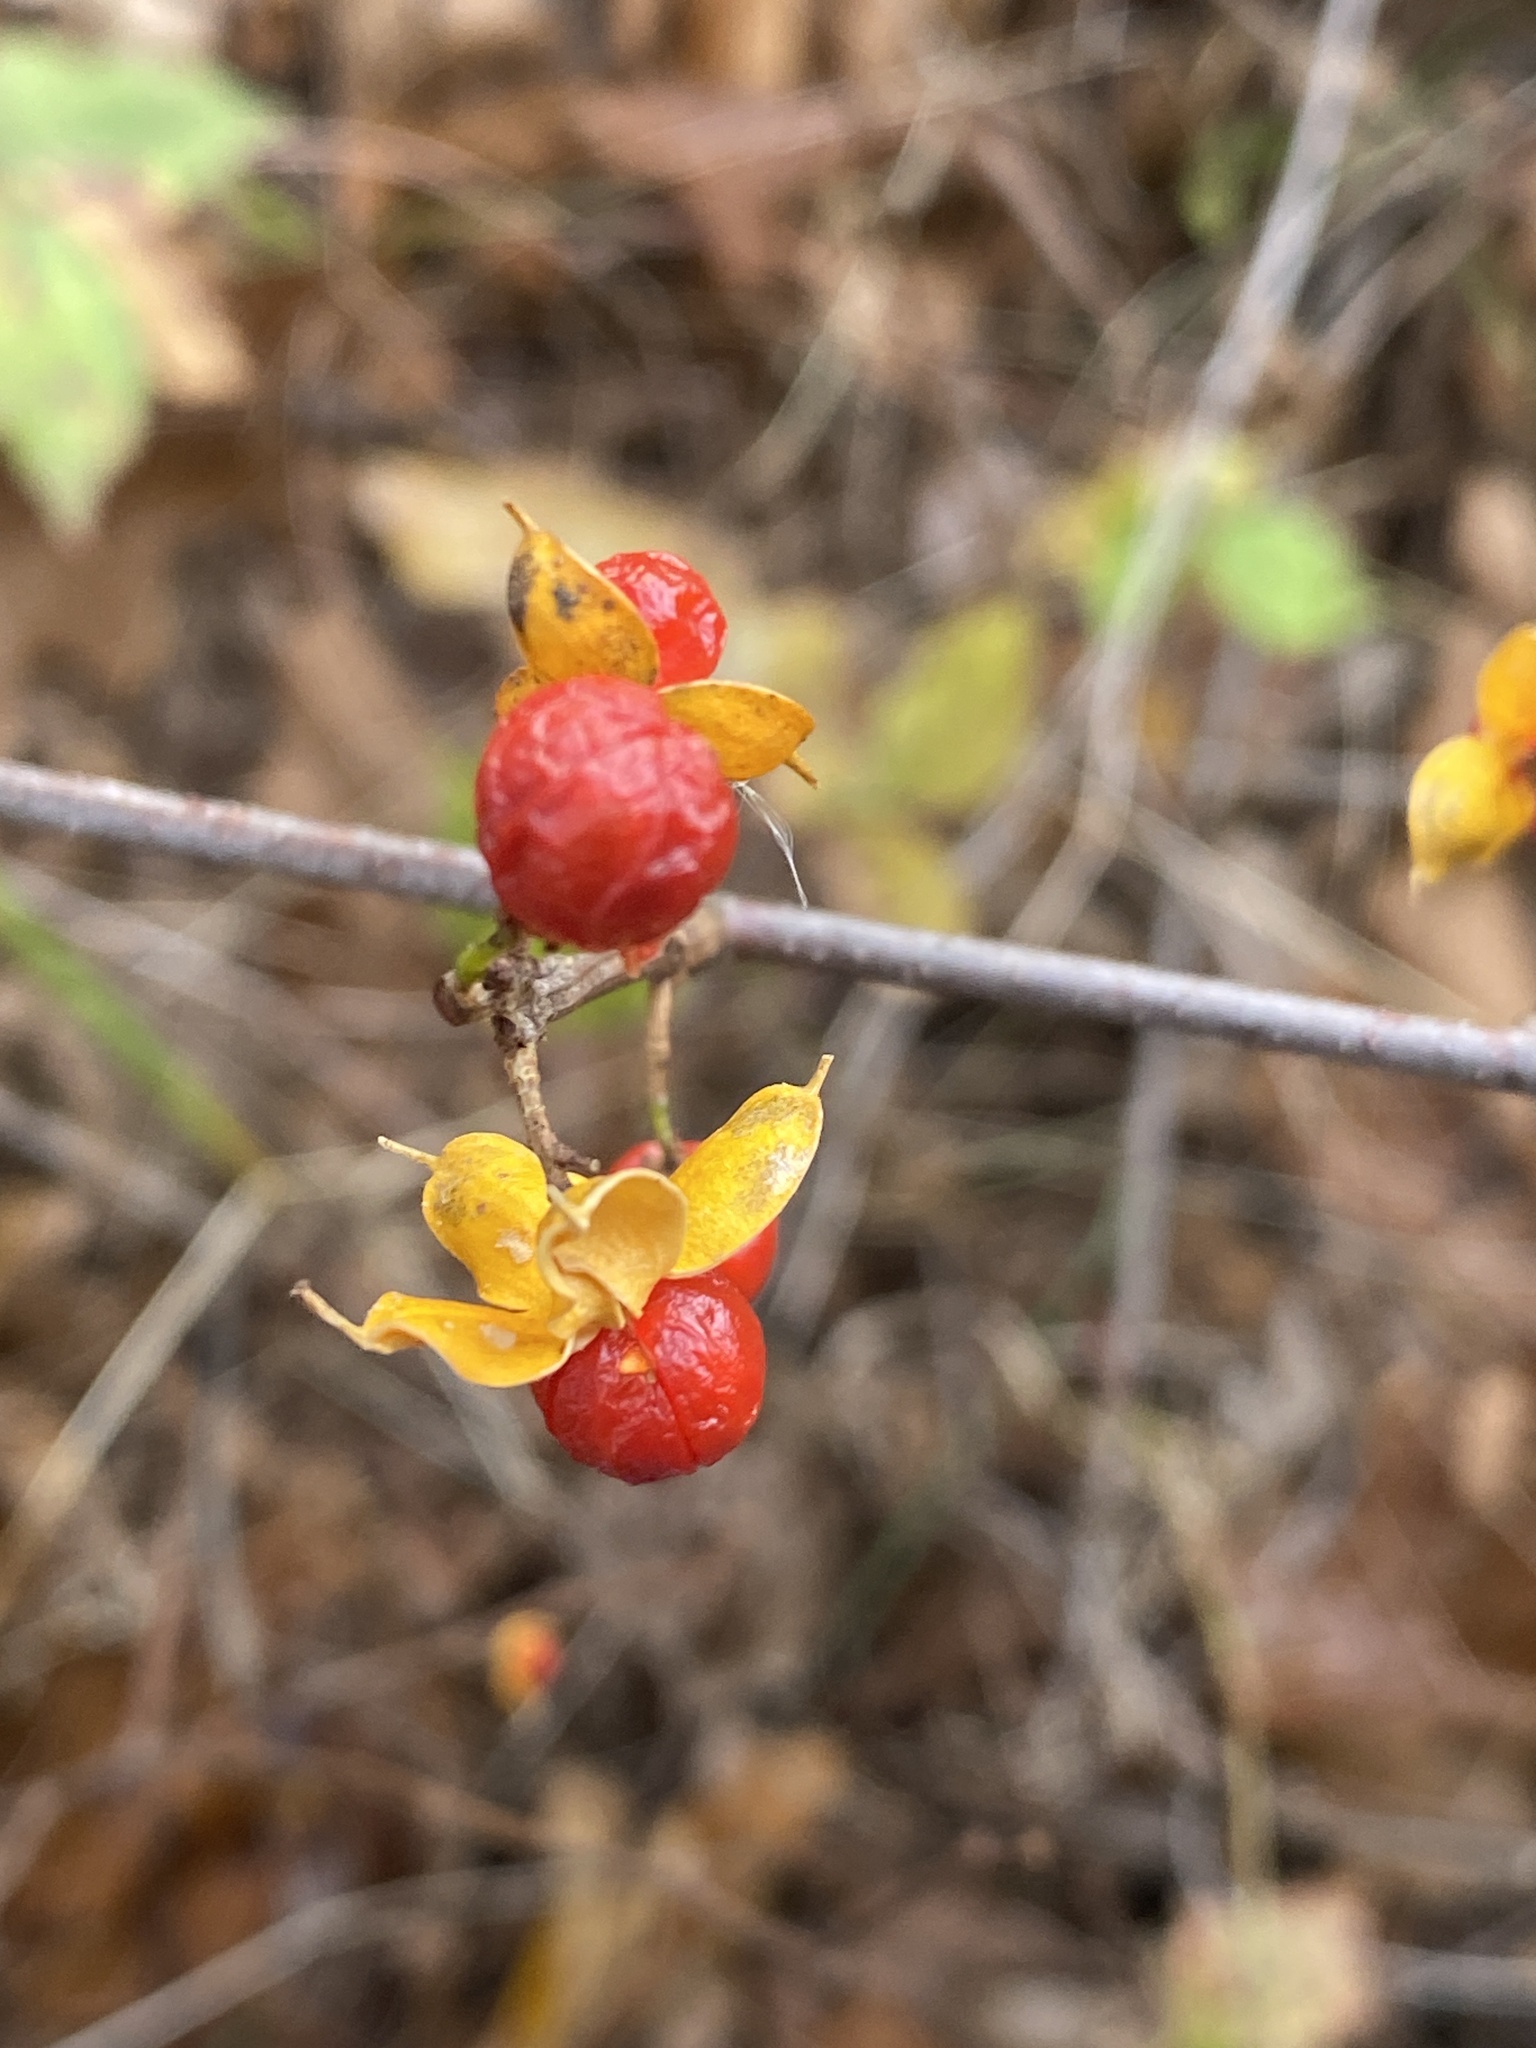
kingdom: Plantae
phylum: Tracheophyta
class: Magnoliopsida
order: Celastrales
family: Celastraceae
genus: Celastrus
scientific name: Celastrus orbiculatus
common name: Oriental bittersweet
